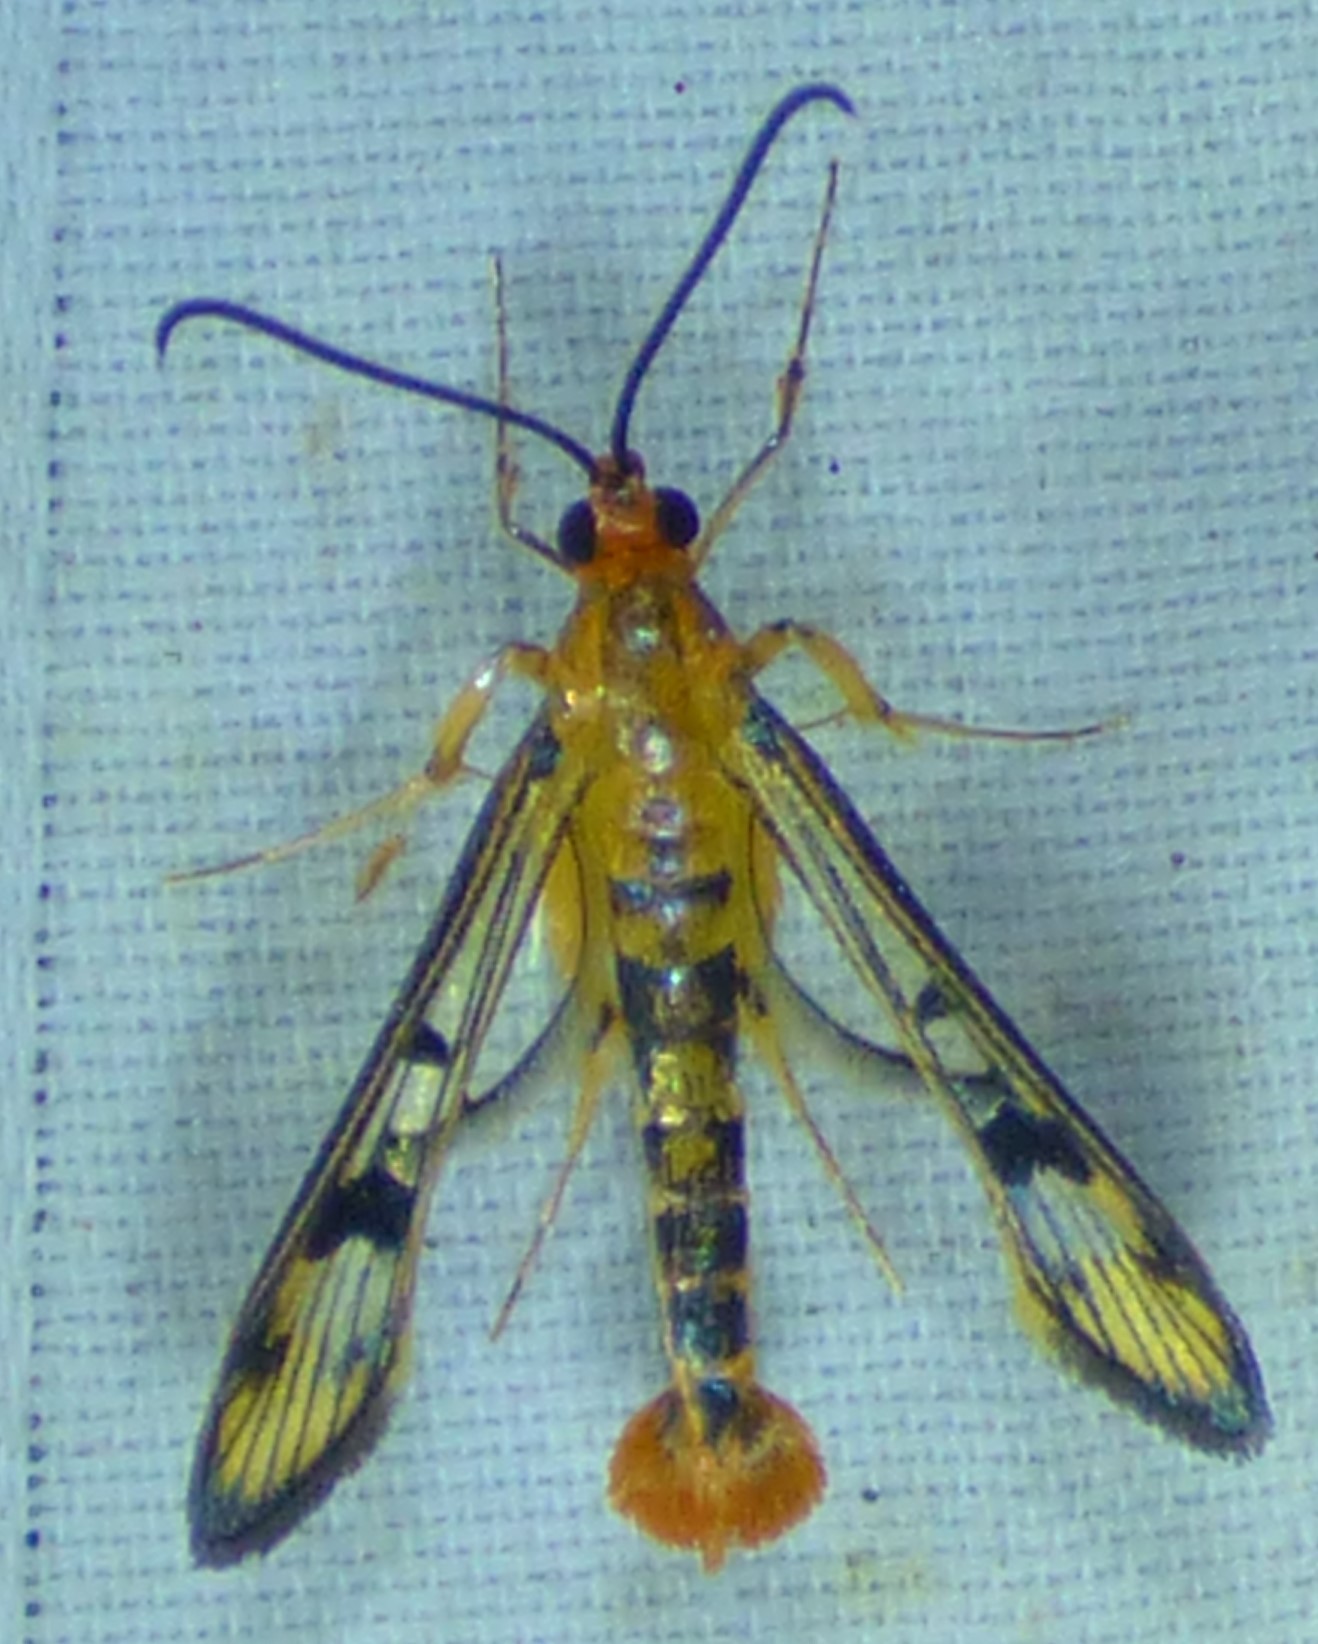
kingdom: Animalia
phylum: Arthropoda
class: Insecta
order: Lepidoptera
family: Sesiidae
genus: Synanthedon
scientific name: Synanthedon acerni
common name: Maple callus borer moth
